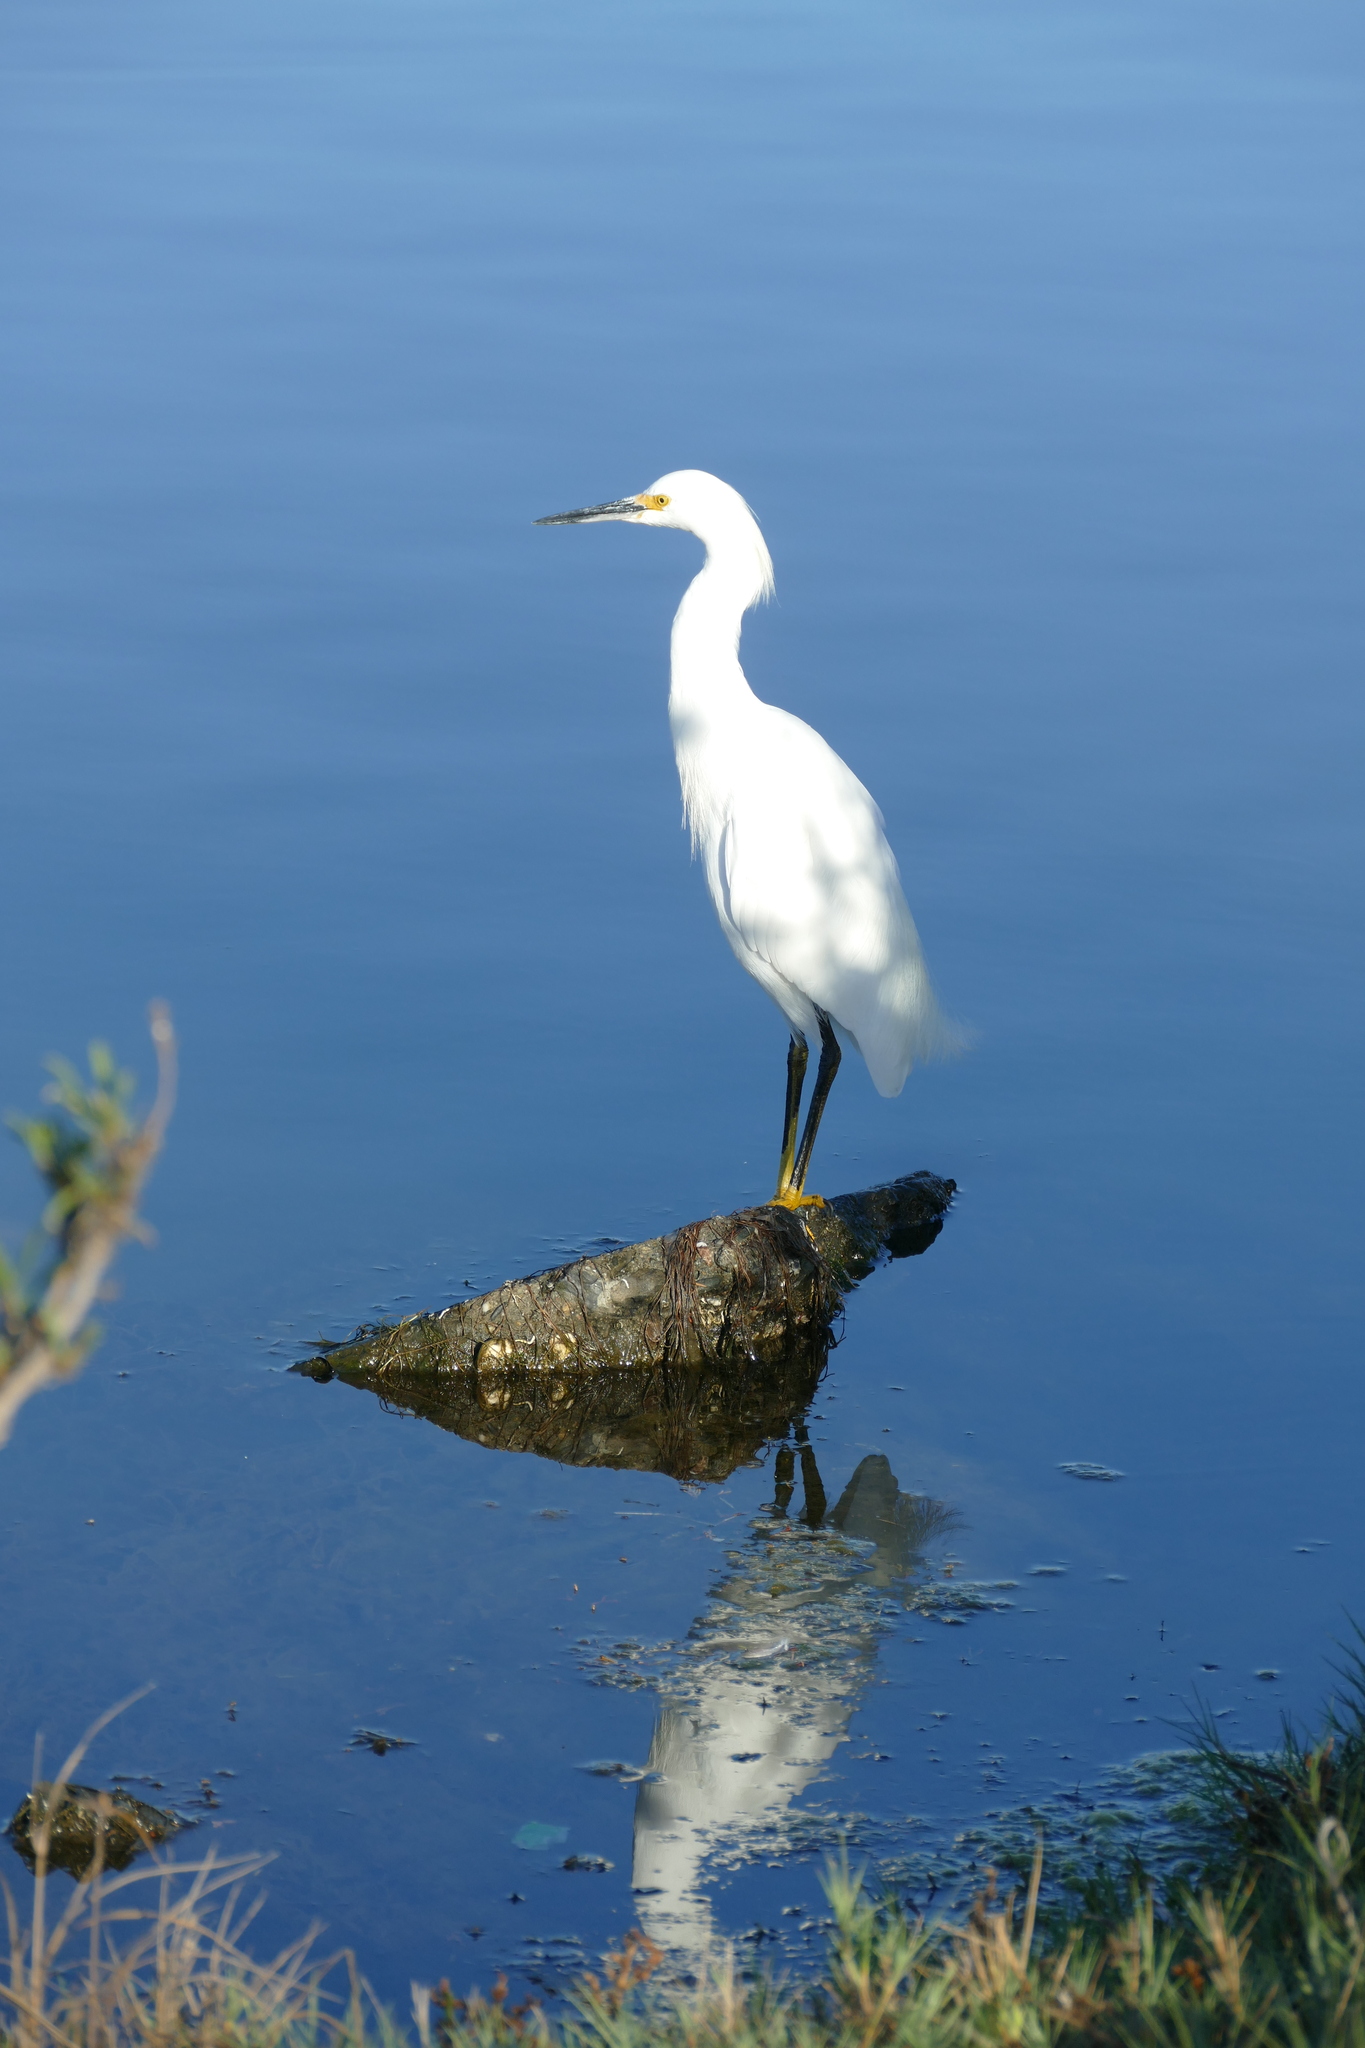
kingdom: Animalia
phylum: Chordata
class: Aves
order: Pelecaniformes
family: Ardeidae
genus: Egretta
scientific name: Egretta thula
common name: Snowy egret
